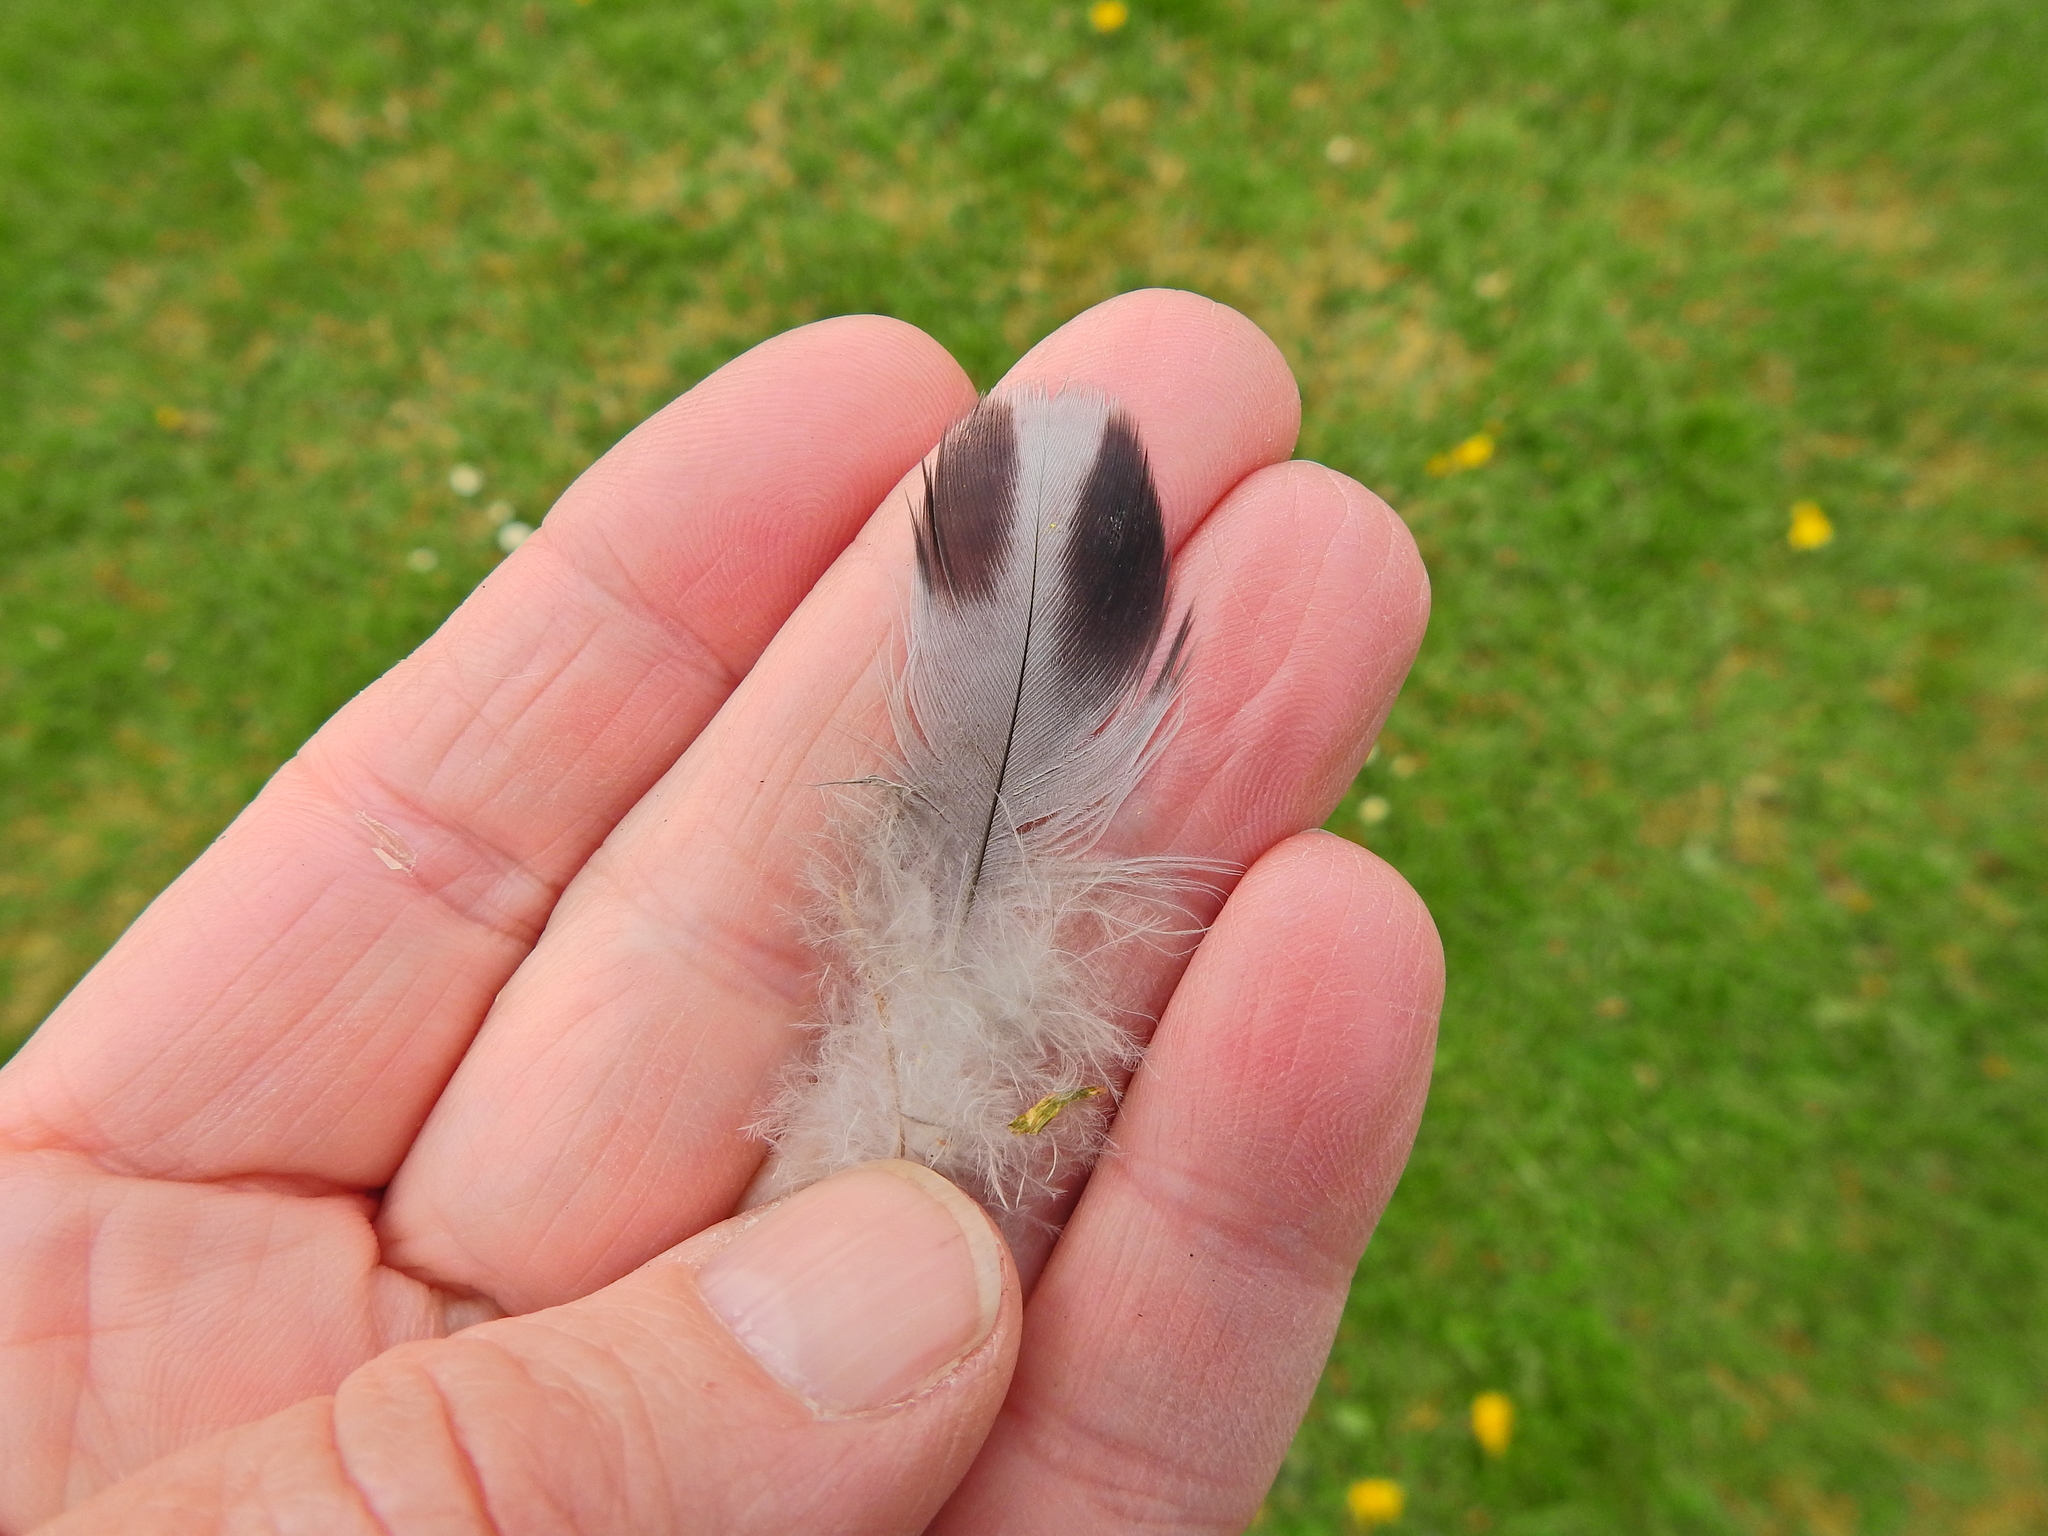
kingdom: Animalia
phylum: Chordata
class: Aves
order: Columbiformes
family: Columbidae
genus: Columba
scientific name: Columba livia
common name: Rock pigeon
